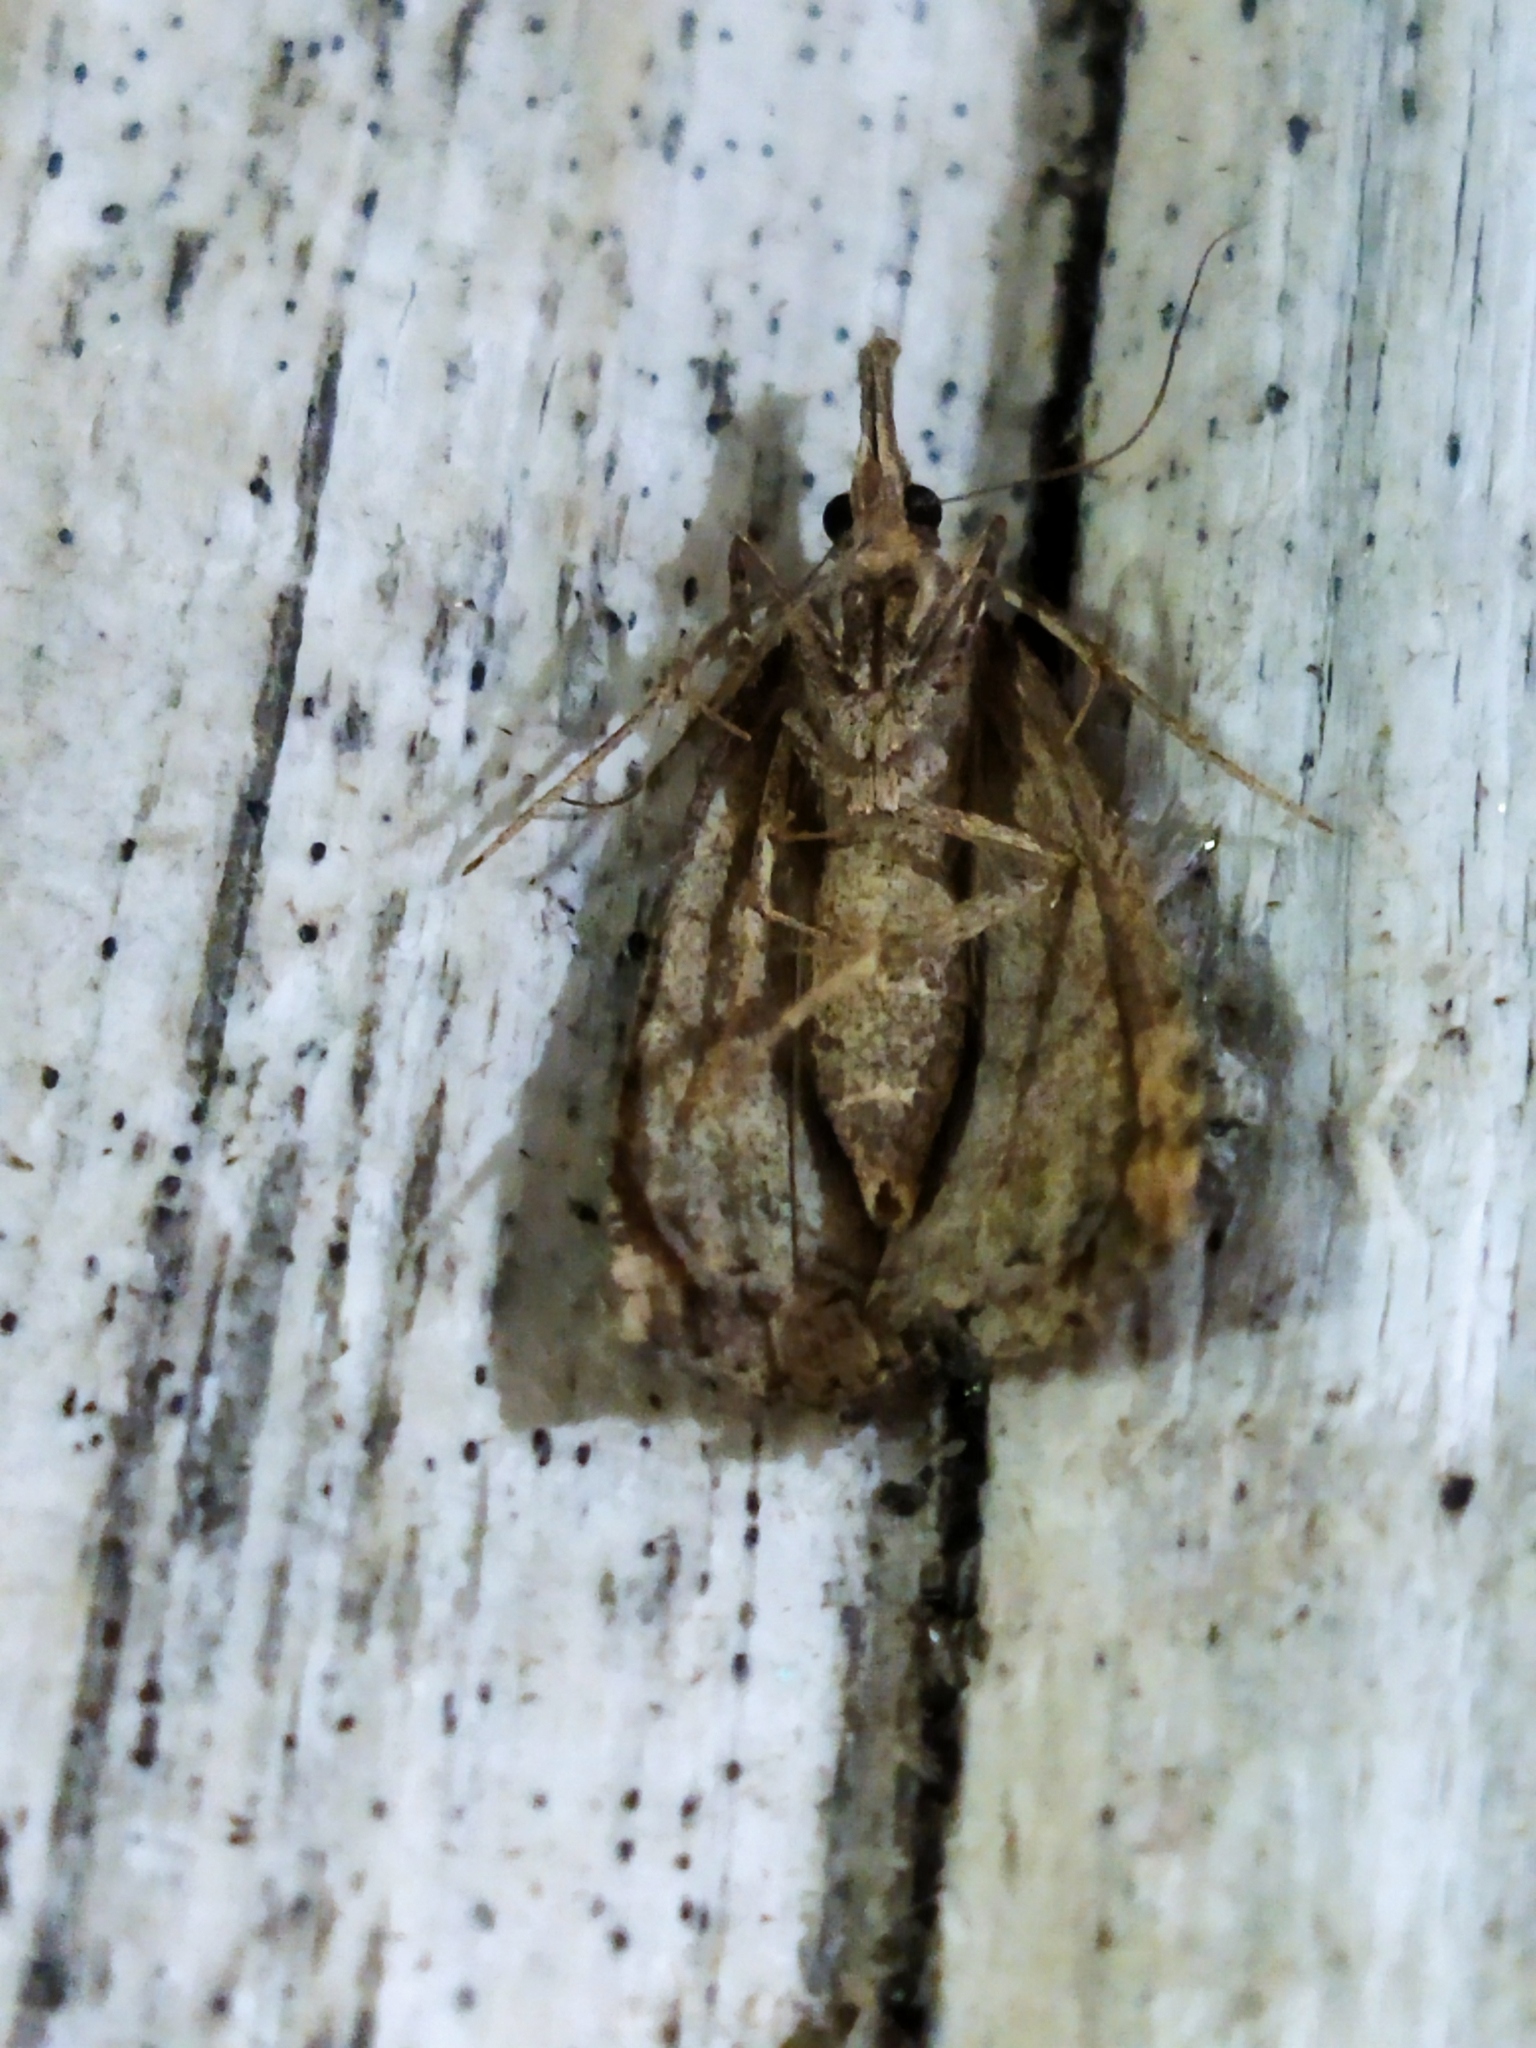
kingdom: Animalia
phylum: Arthropoda
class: Insecta
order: Lepidoptera
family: Erebidae
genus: Hypena
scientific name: Hypena rostralis
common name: Buttoned snout
